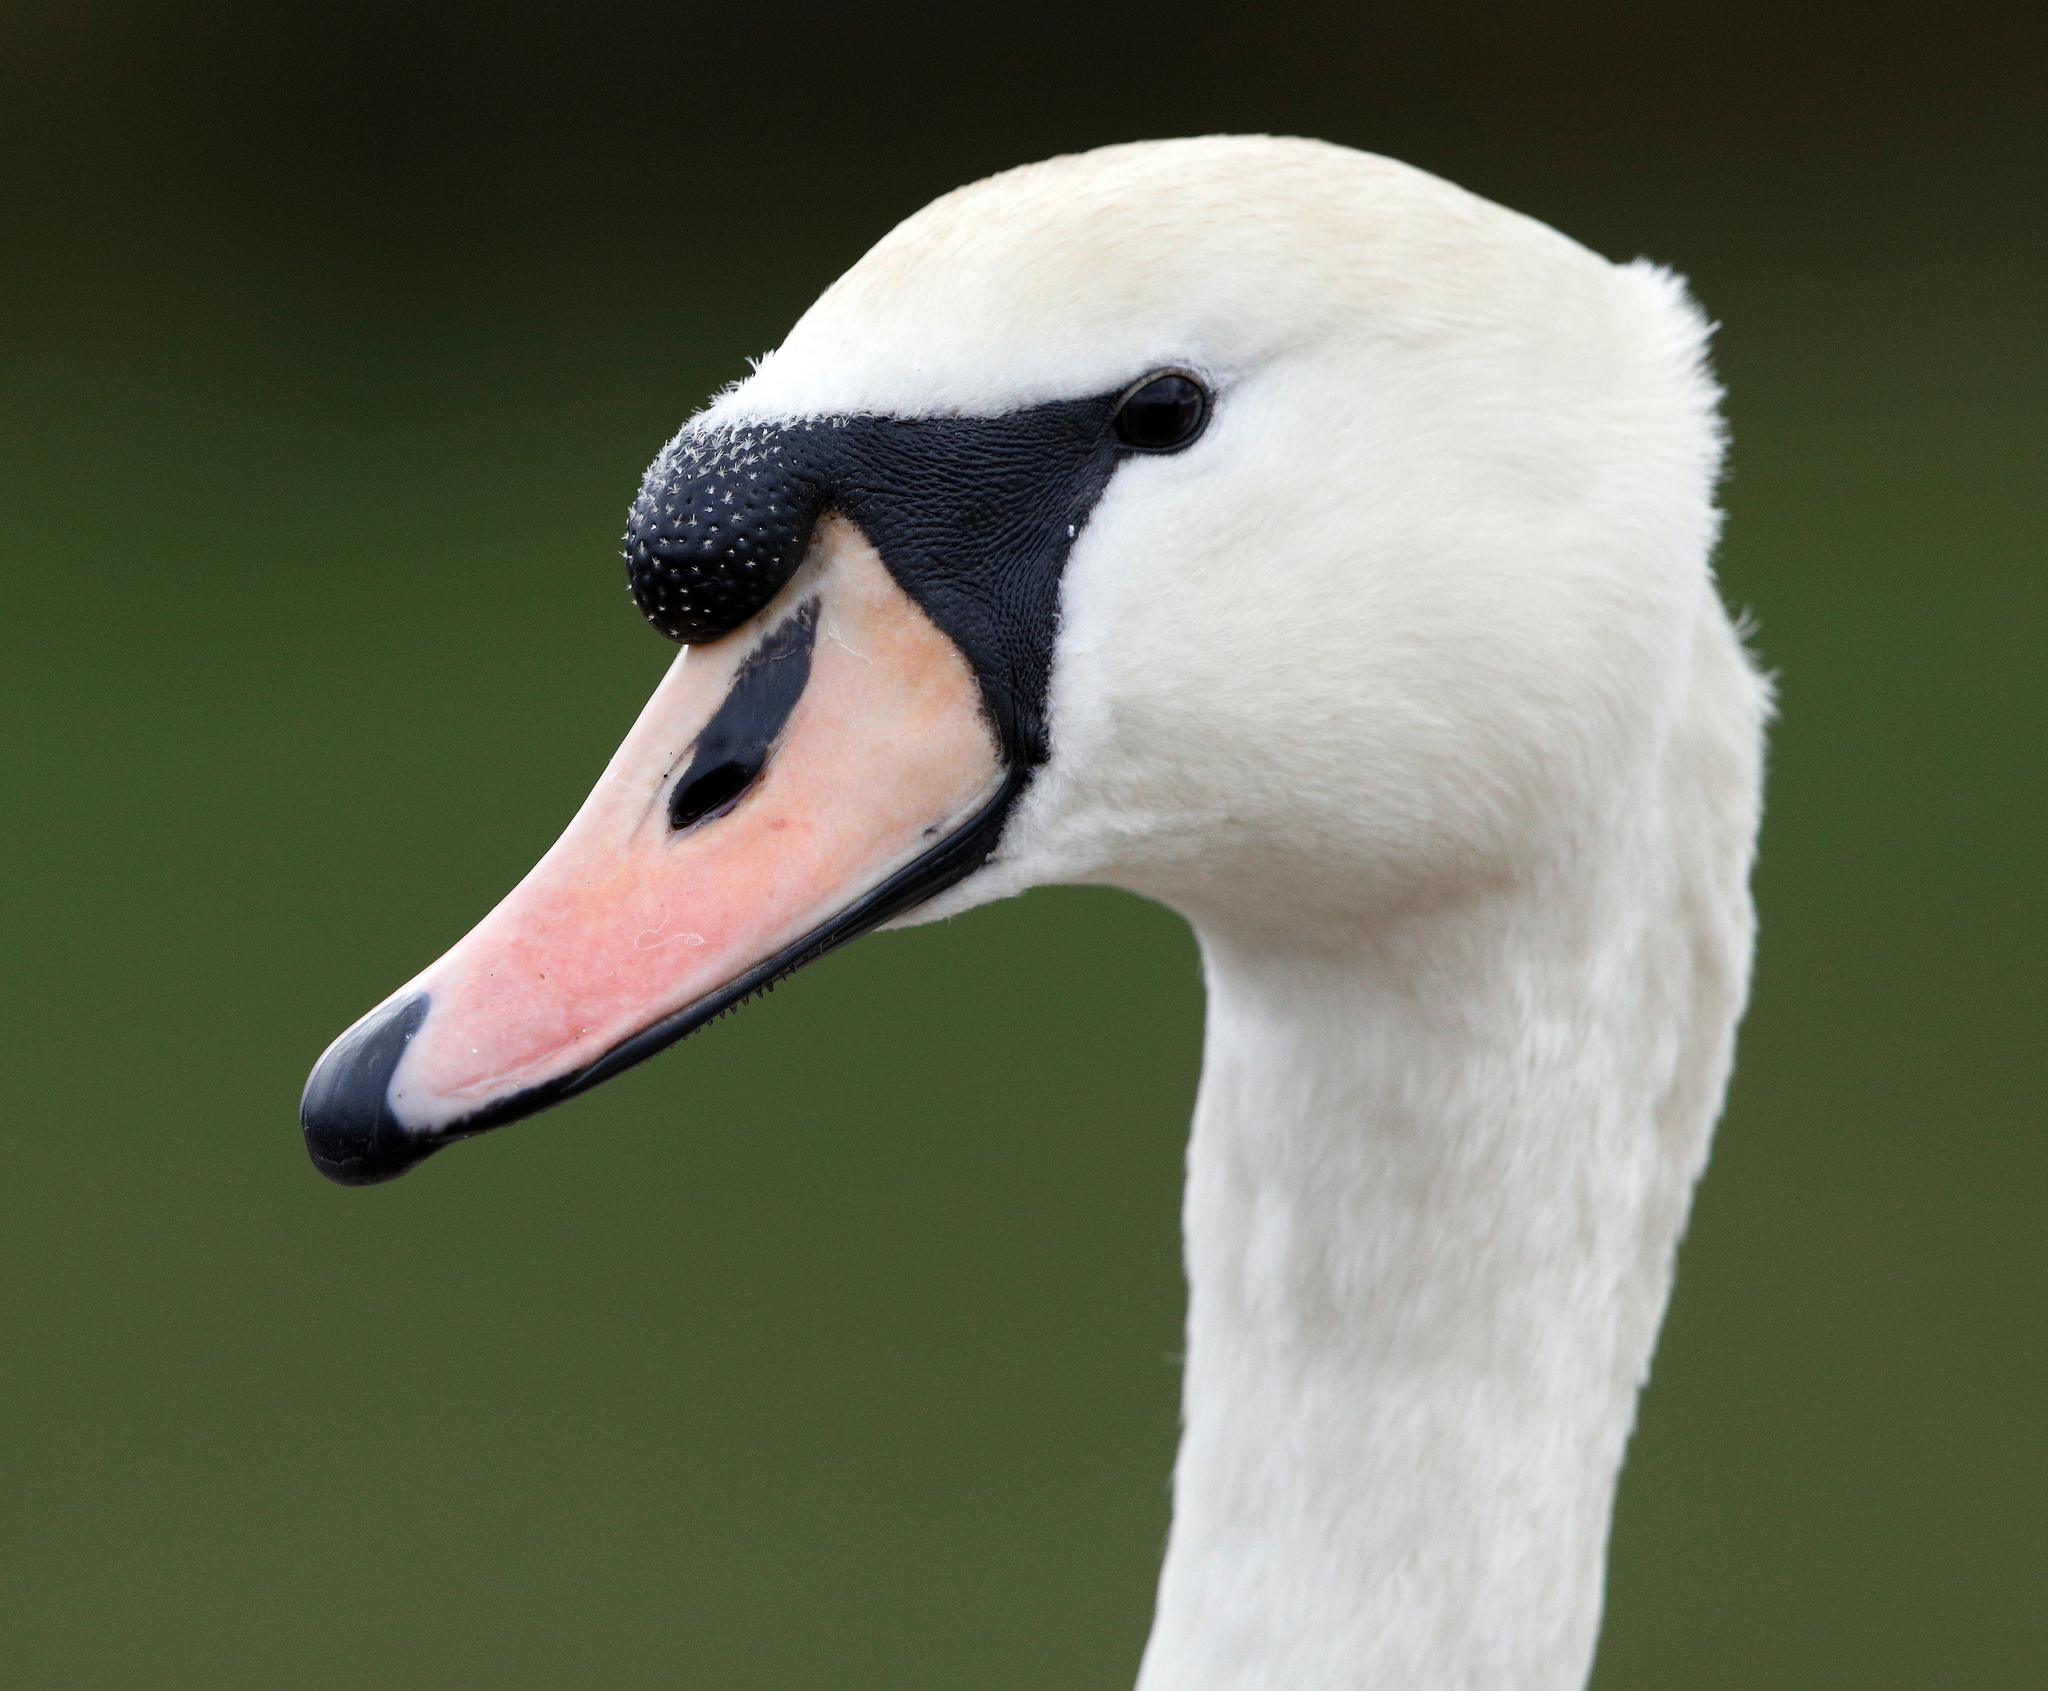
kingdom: Animalia
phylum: Chordata
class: Aves
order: Anseriformes
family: Anatidae
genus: Cygnus
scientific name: Cygnus olor
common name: Mute swan
